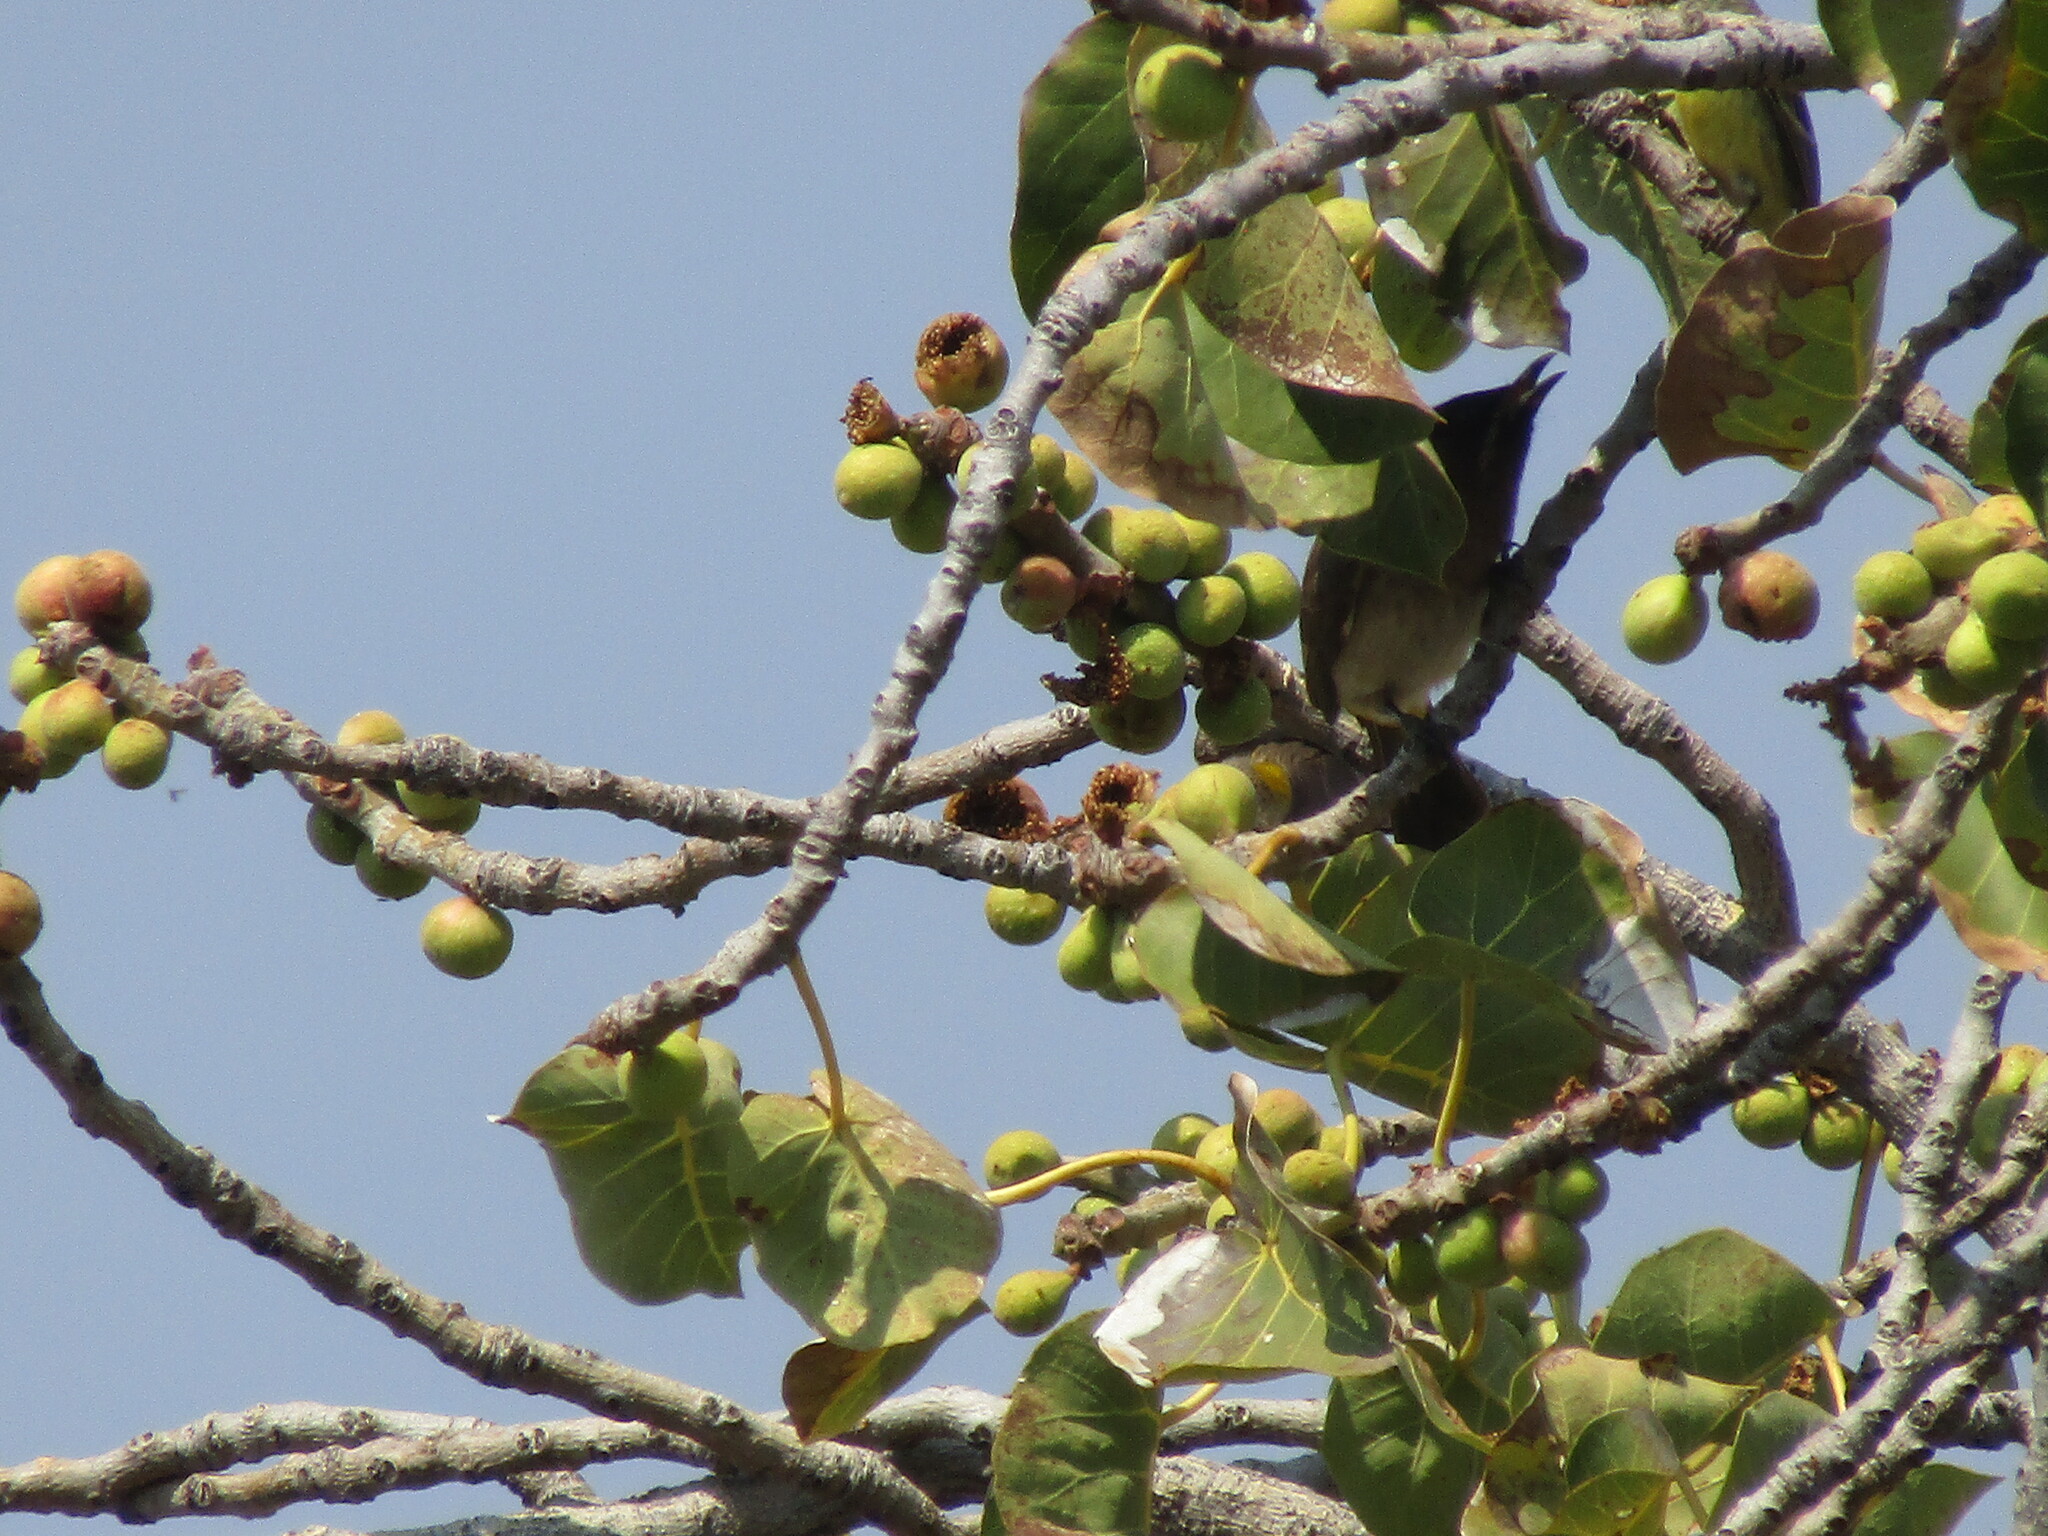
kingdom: Animalia
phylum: Chordata
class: Aves
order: Passeriformes
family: Pycnonotidae
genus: Pycnonotus
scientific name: Pycnonotus barbatus
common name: Common bulbul
